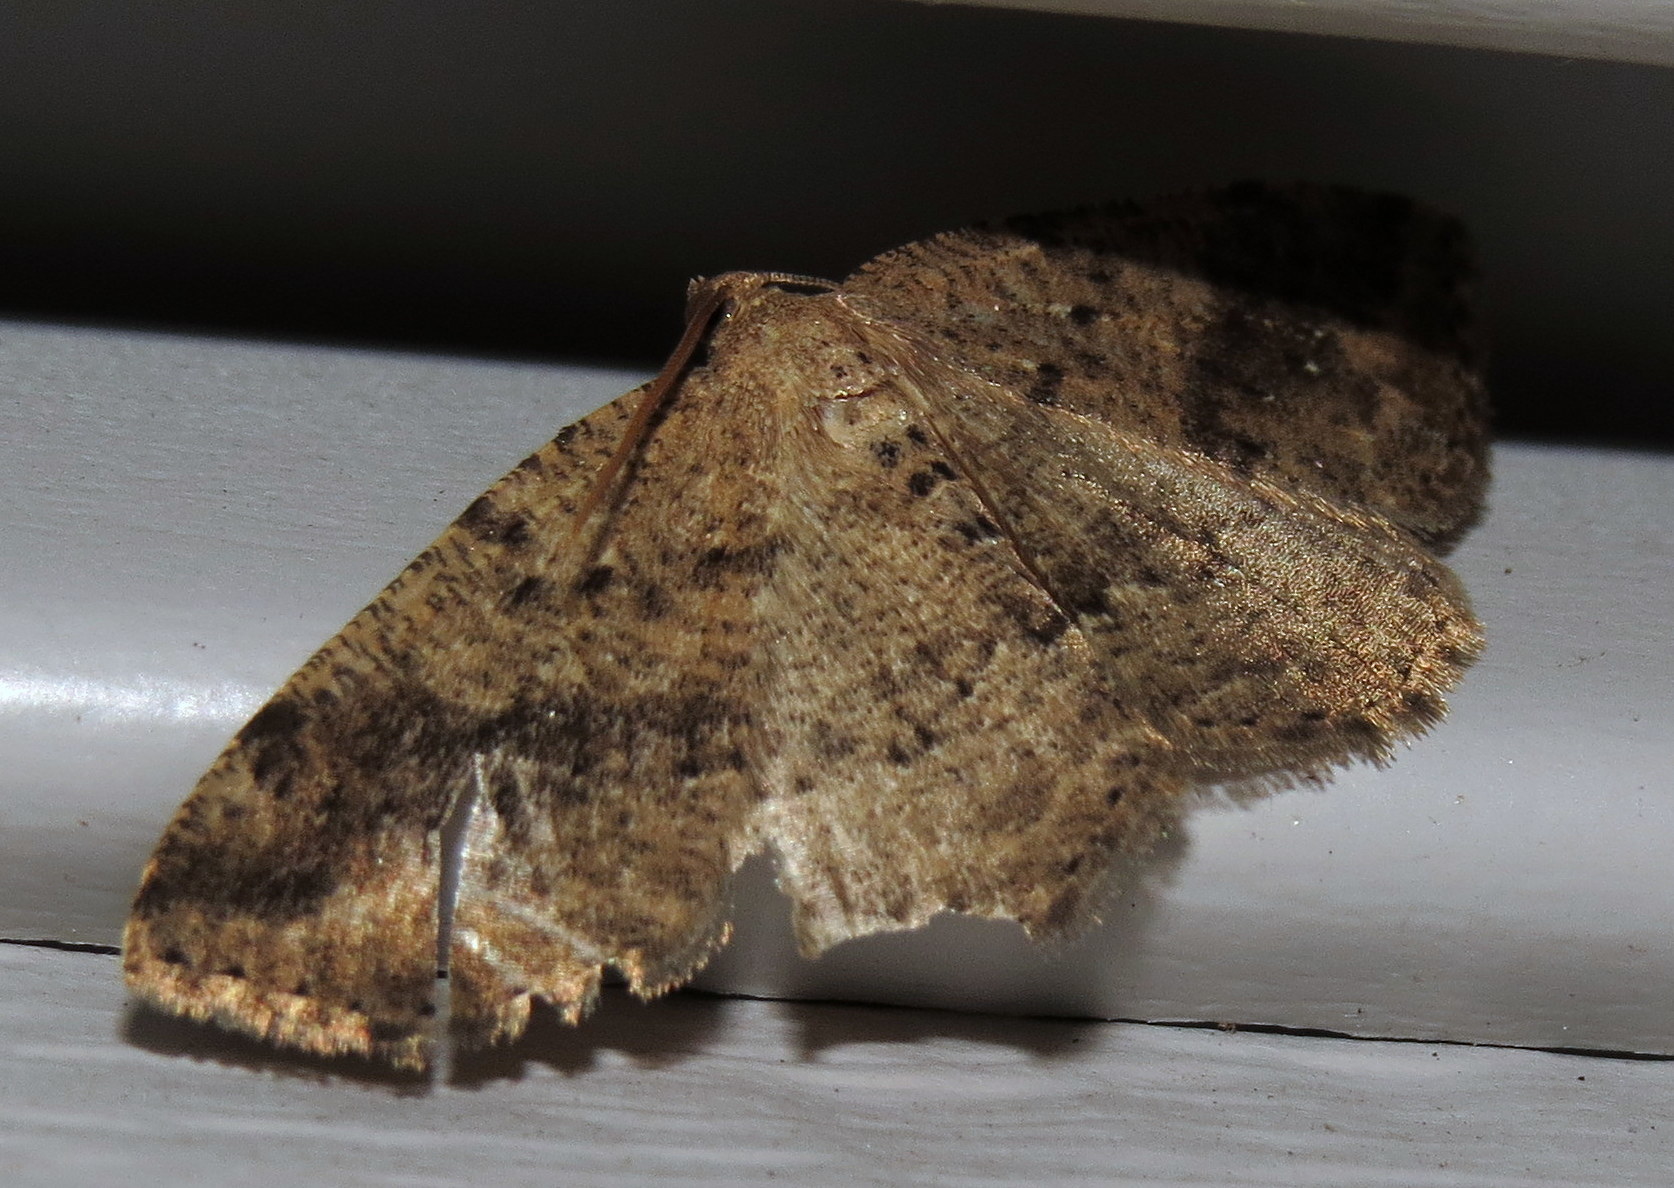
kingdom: Animalia
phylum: Arthropoda
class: Insecta
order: Lepidoptera
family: Geometridae
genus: Homochlodes
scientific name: Homochlodes fritillaria
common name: Pale homochlodes
